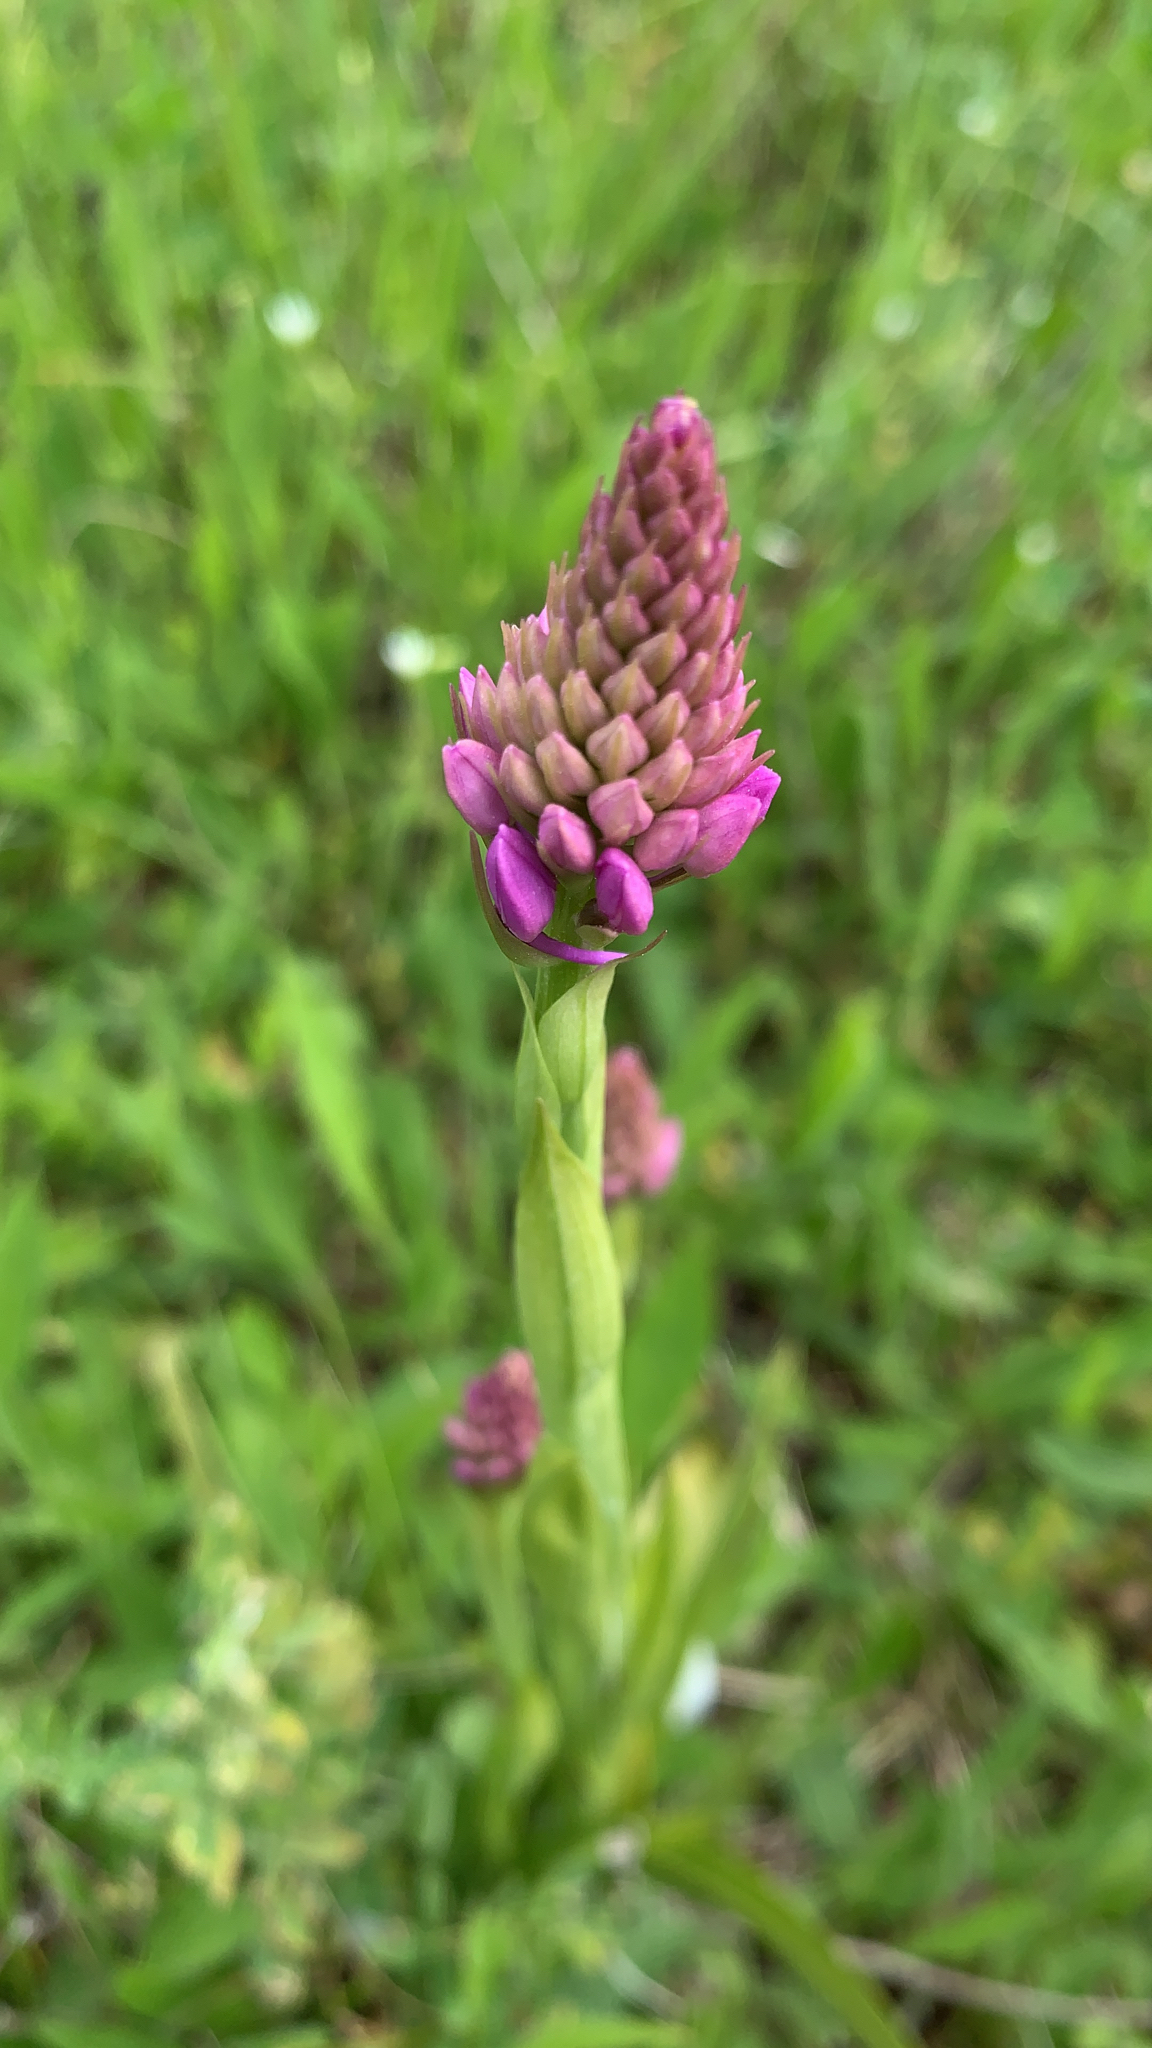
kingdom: Plantae
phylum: Tracheophyta
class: Liliopsida
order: Asparagales
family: Orchidaceae
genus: Anacamptis
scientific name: Anacamptis pyramidalis
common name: Pyramidal orchid
